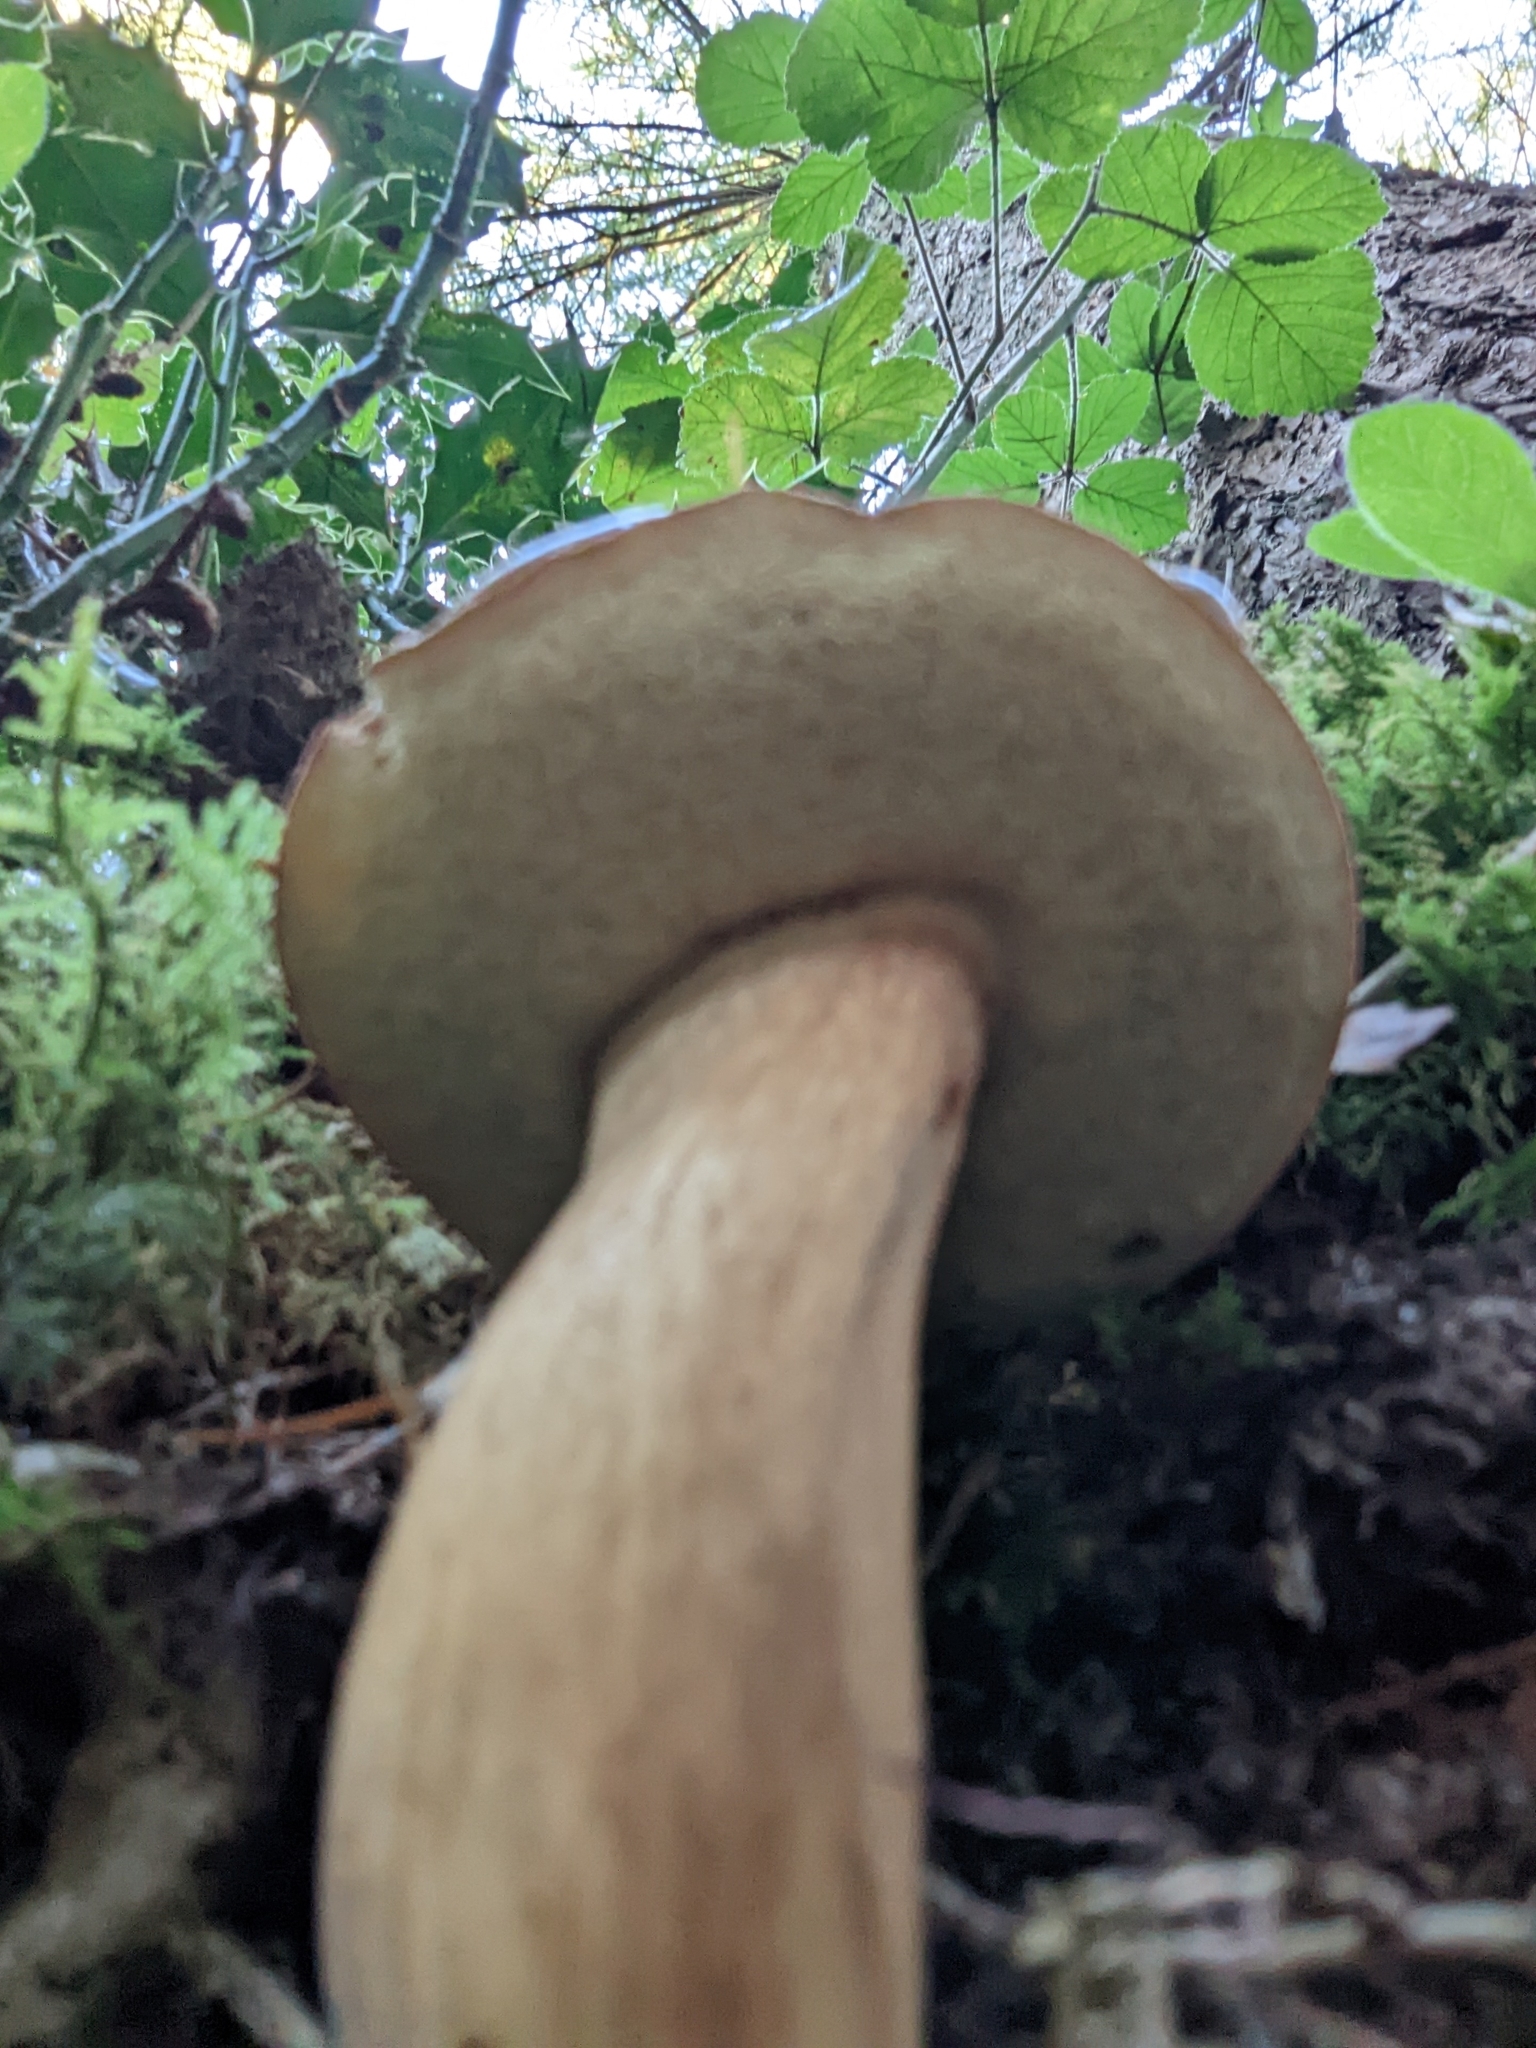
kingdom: Fungi
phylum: Basidiomycota
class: Agaricomycetes
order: Boletales
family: Boletaceae
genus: Imleria
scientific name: Imleria badia
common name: Bay bolete
